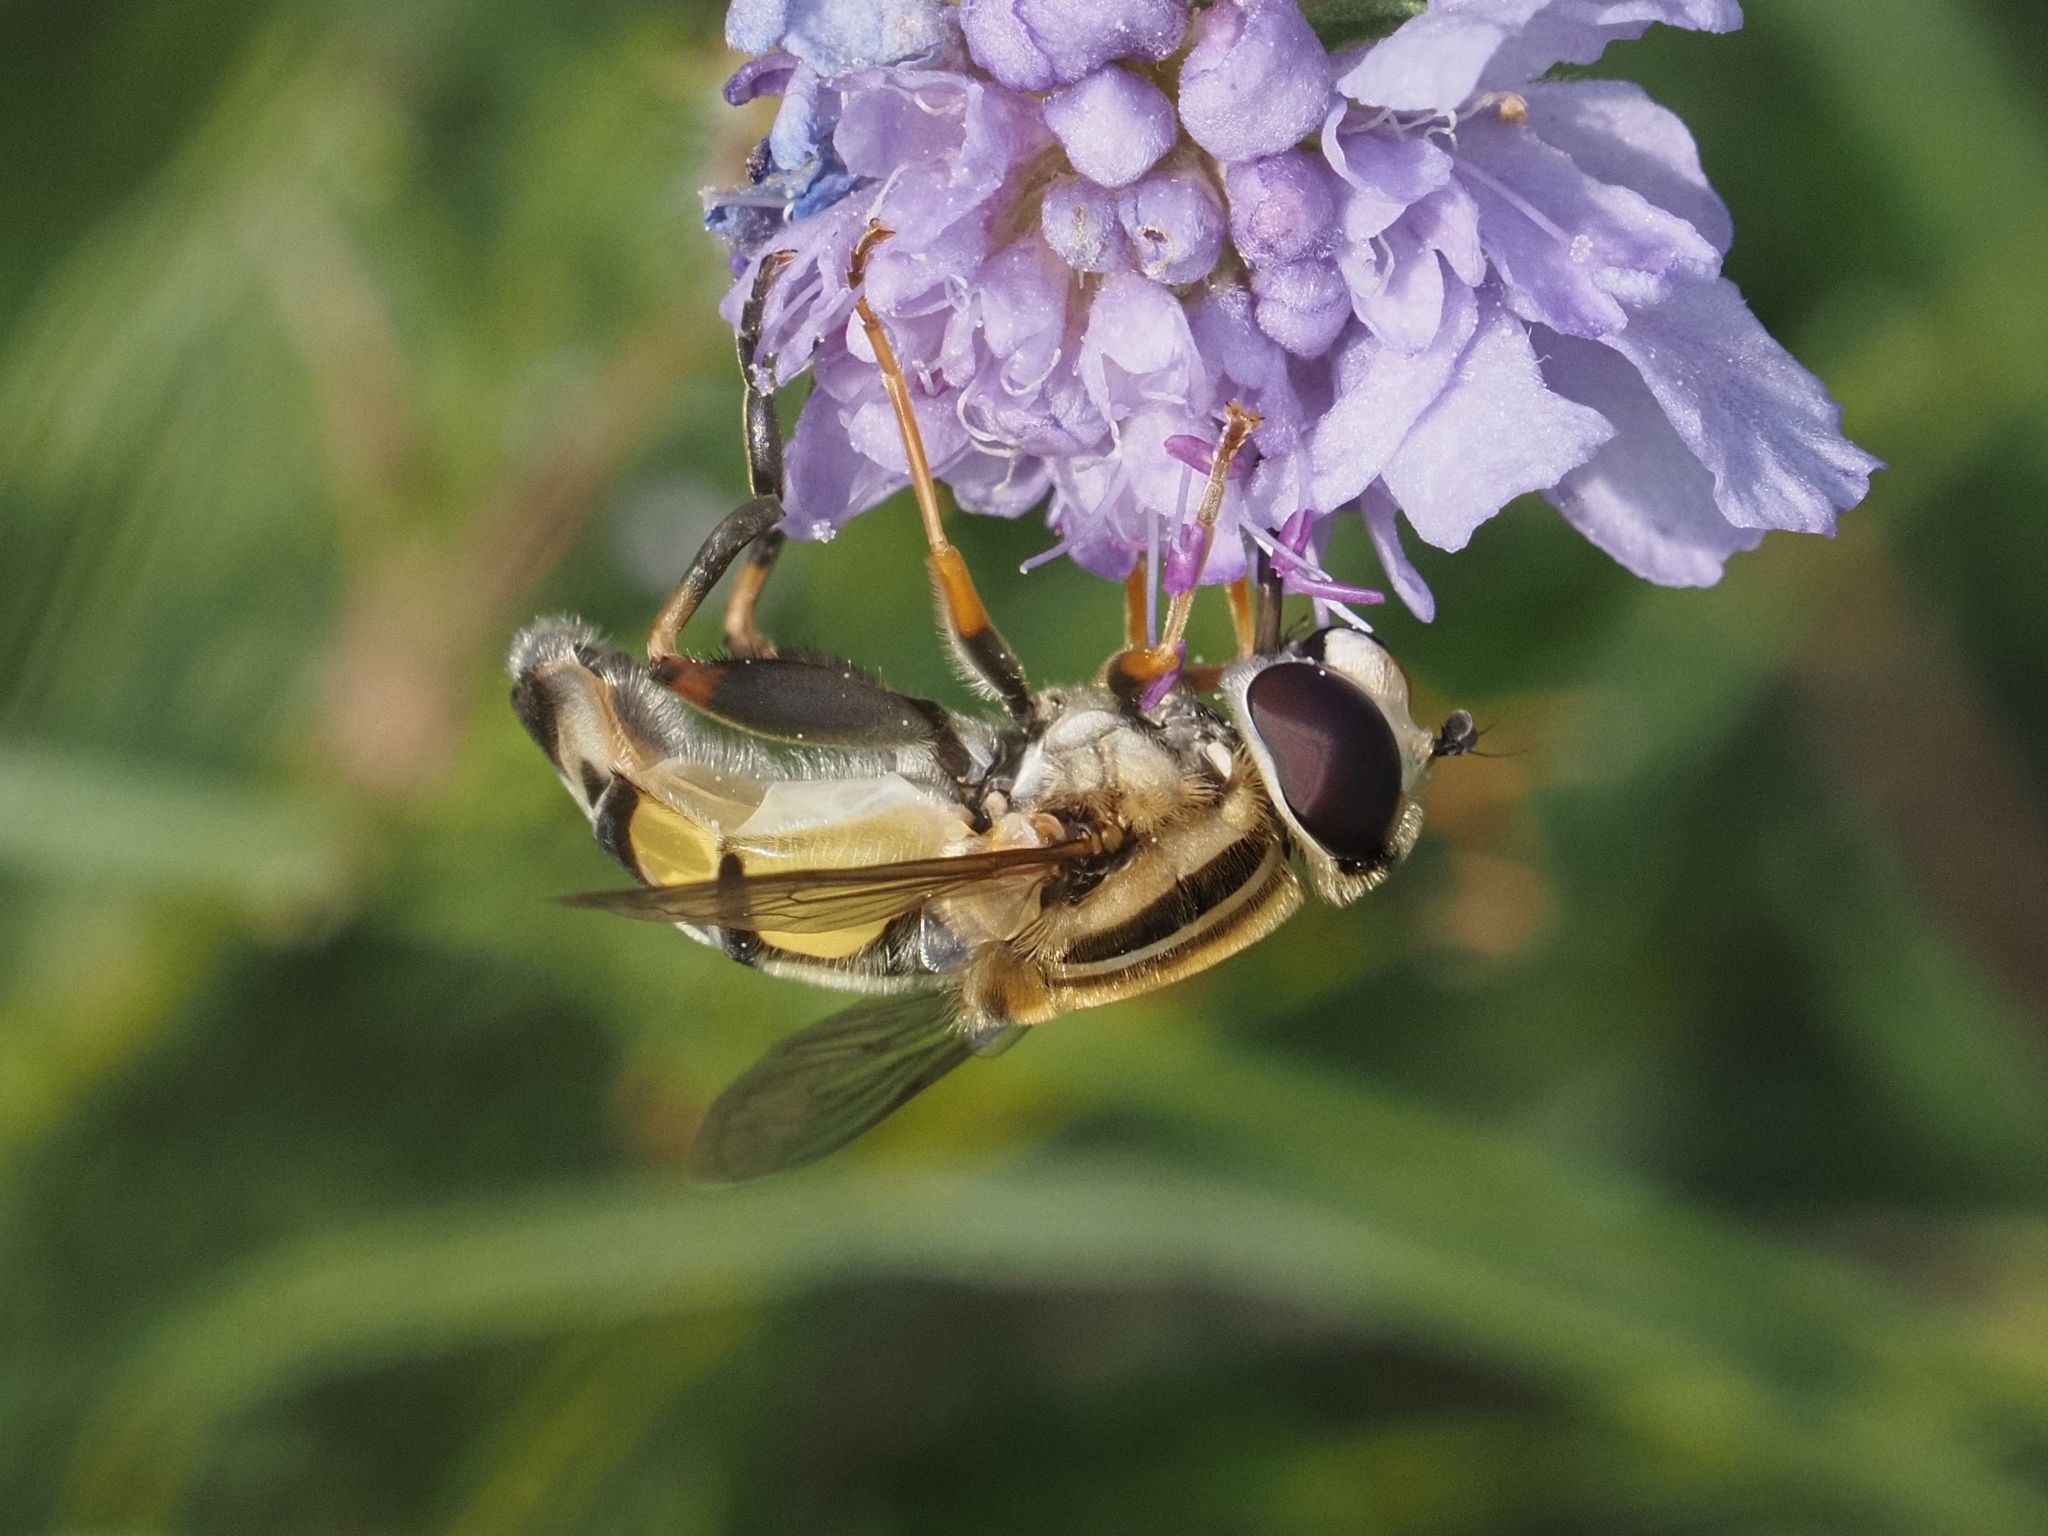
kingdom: Animalia
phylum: Arthropoda
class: Insecta
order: Diptera
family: Syrphidae
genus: Helophilus
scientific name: Helophilus trivittatus
